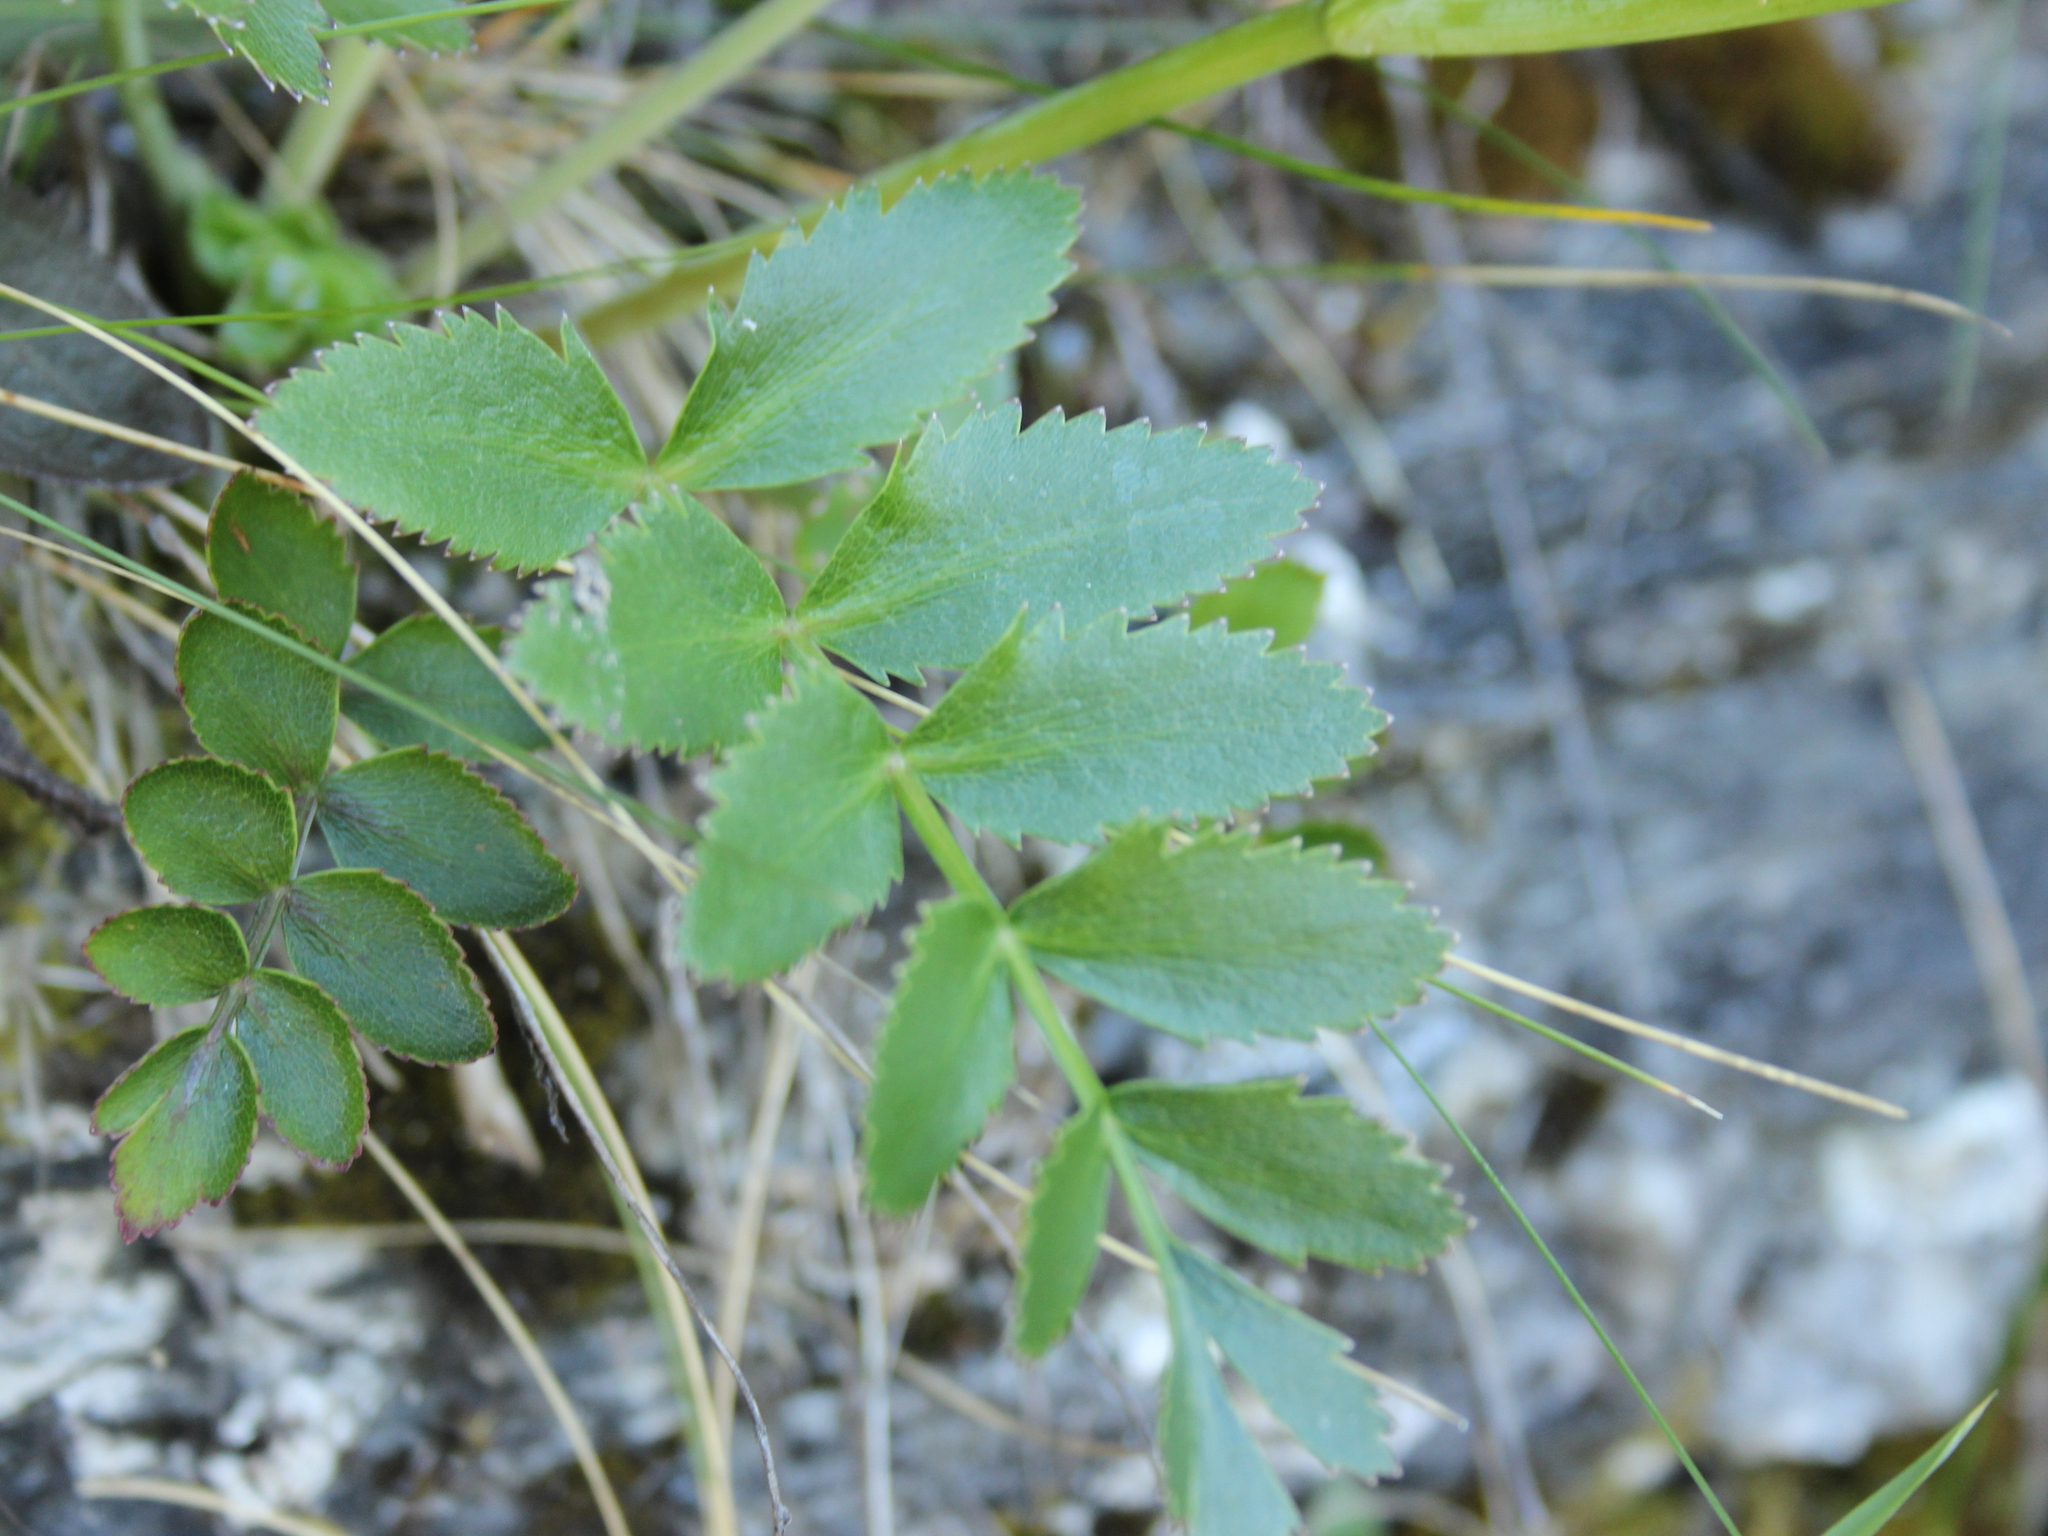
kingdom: Plantae
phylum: Tracheophyta
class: Magnoliopsida
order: Apiales
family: Apiaceae
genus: Gingidia
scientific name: Gingidia montana
